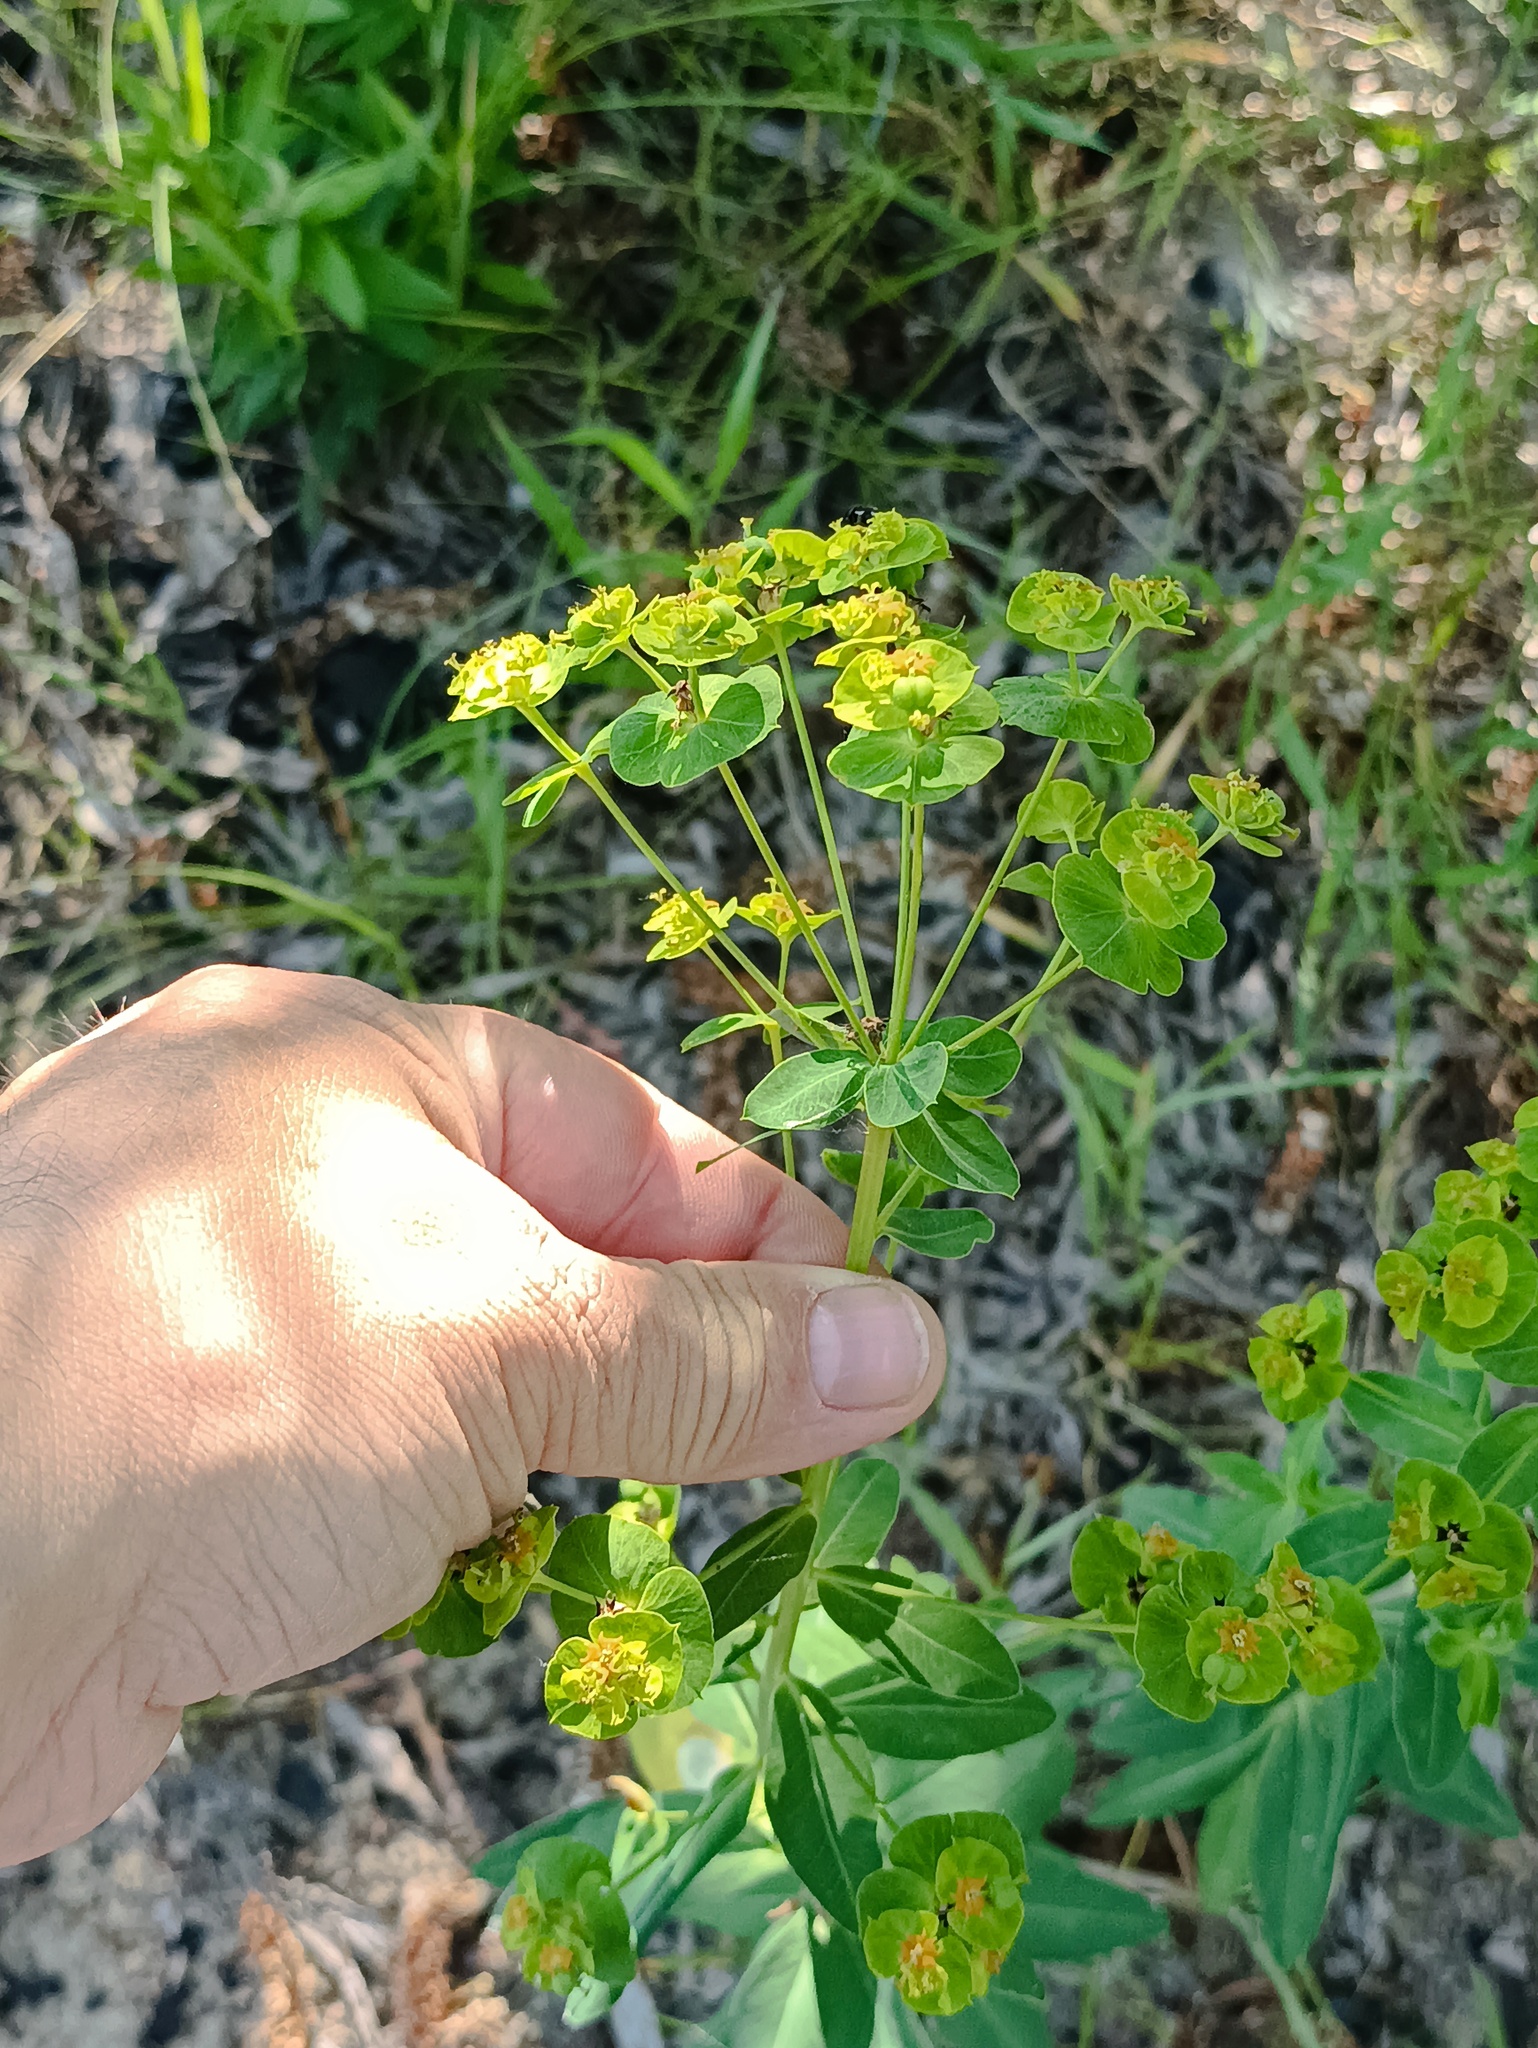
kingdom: Plantae
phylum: Tracheophyta
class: Magnoliopsida
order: Malpighiales
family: Euphorbiaceae
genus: Euphorbia
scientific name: Euphorbia virgata
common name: Leafy spurge
